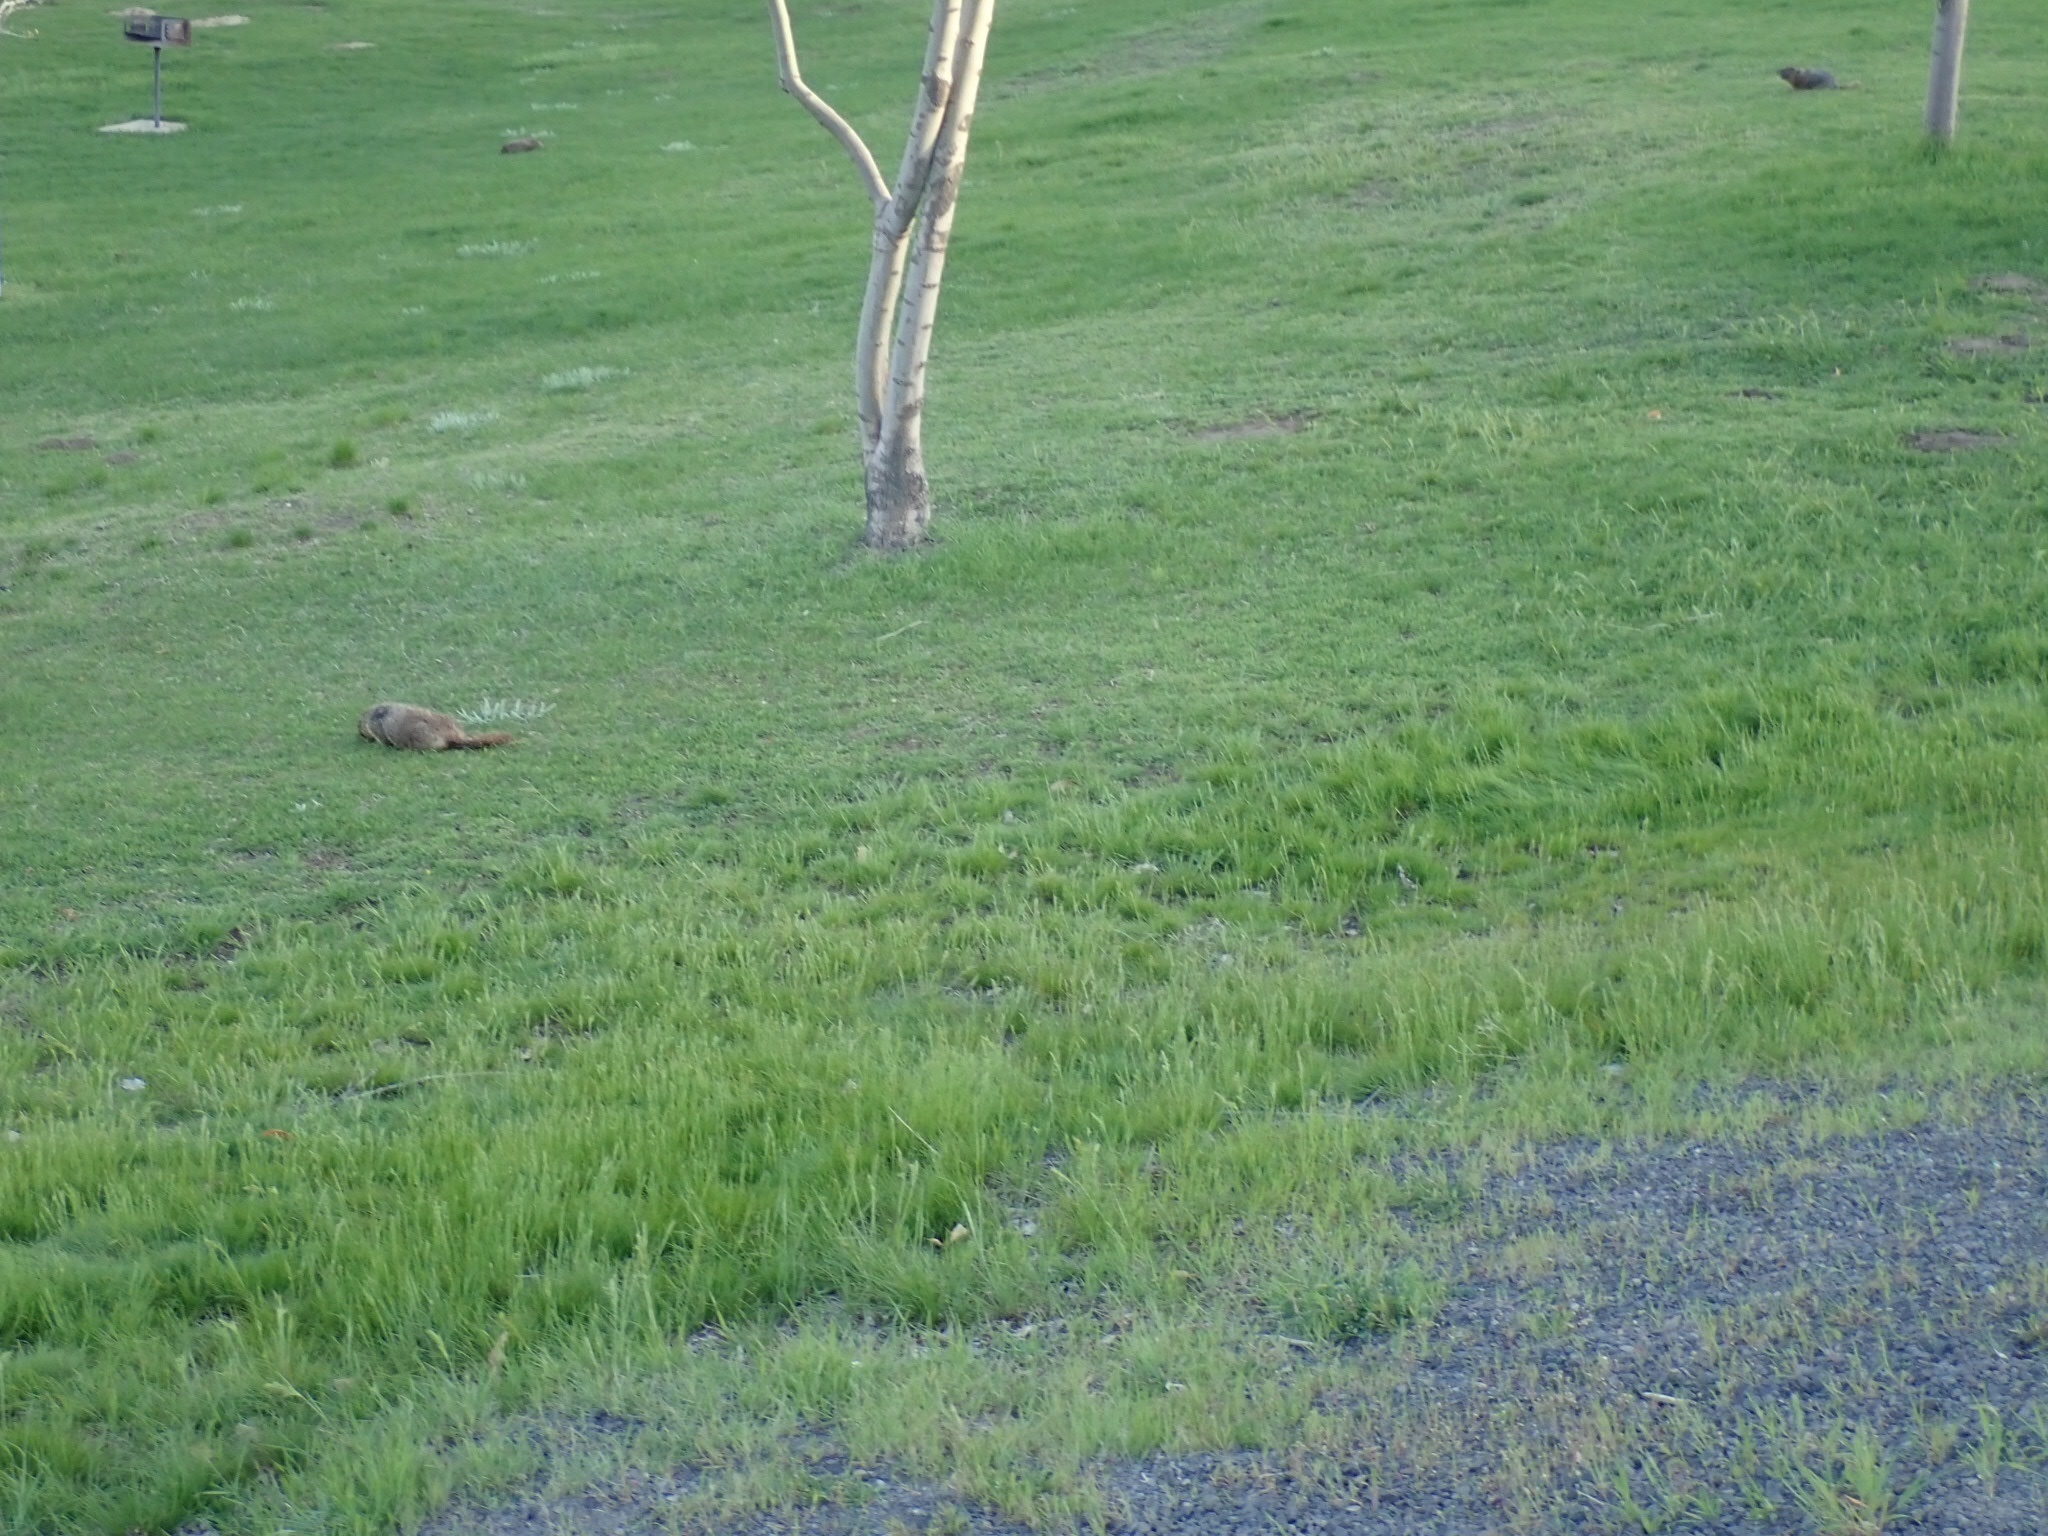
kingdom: Animalia
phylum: Chordata
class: Mammalia
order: Rodentia
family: Sciuridae
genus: Marmota
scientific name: Marmota flaviventris
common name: Yellow-bellied marmot
